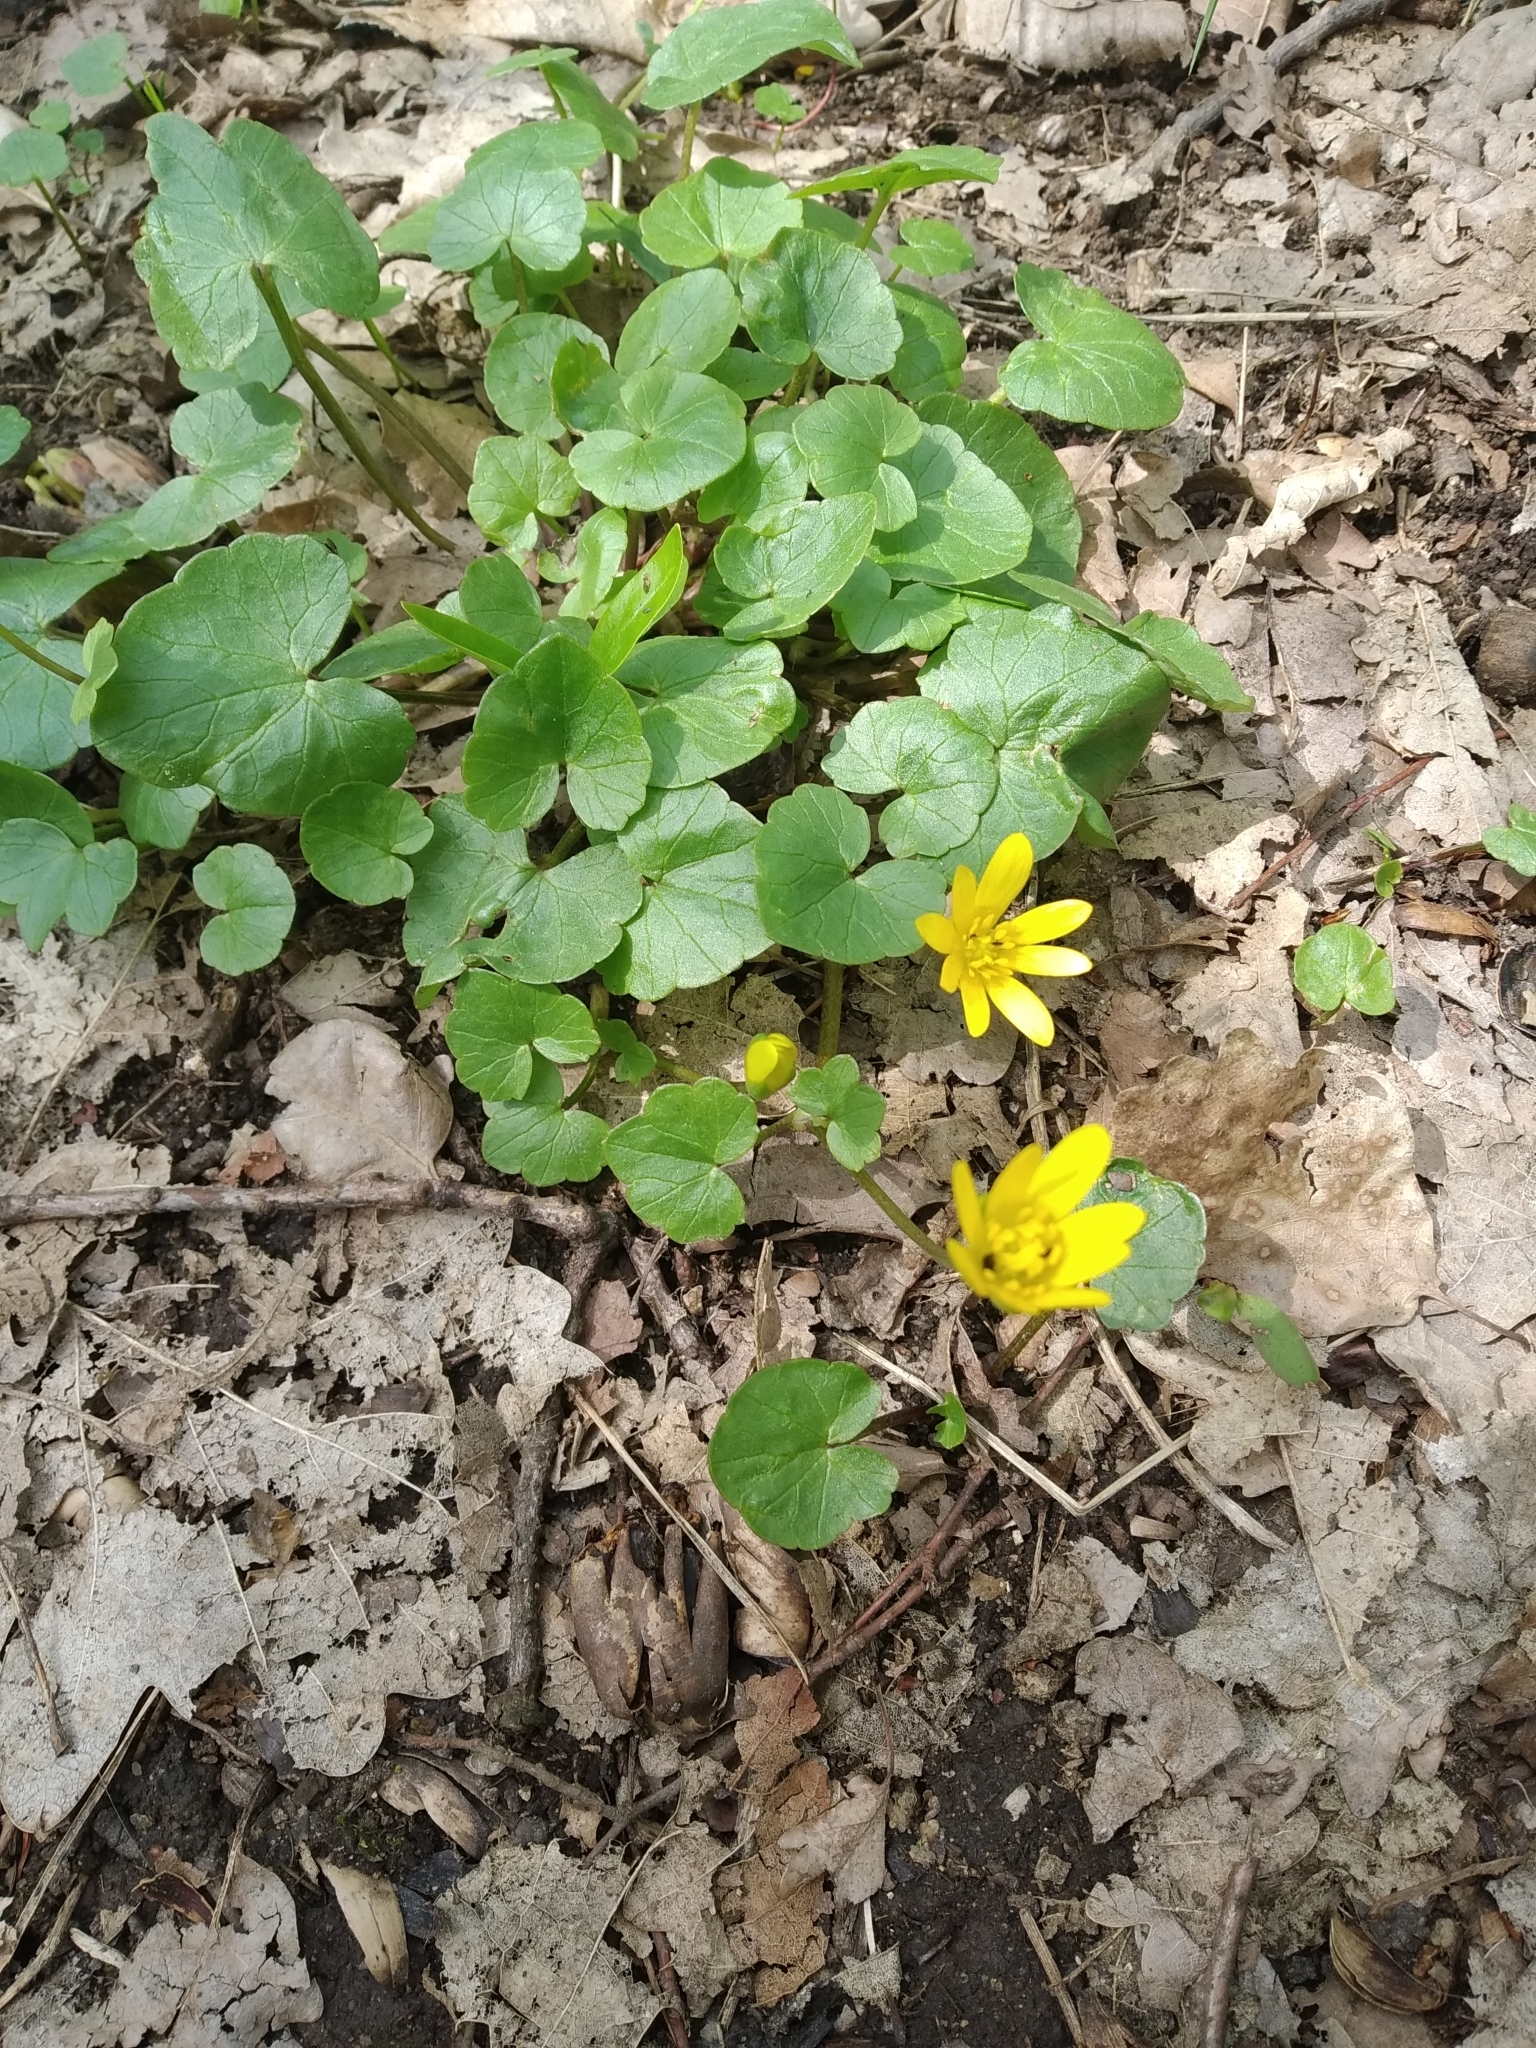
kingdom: Plantae
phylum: Tracheophyta
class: Magnoliopsida
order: Ranunculales
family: Ranunculaceae
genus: Ficaria
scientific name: Ficaria verna
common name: Lesser celandine
